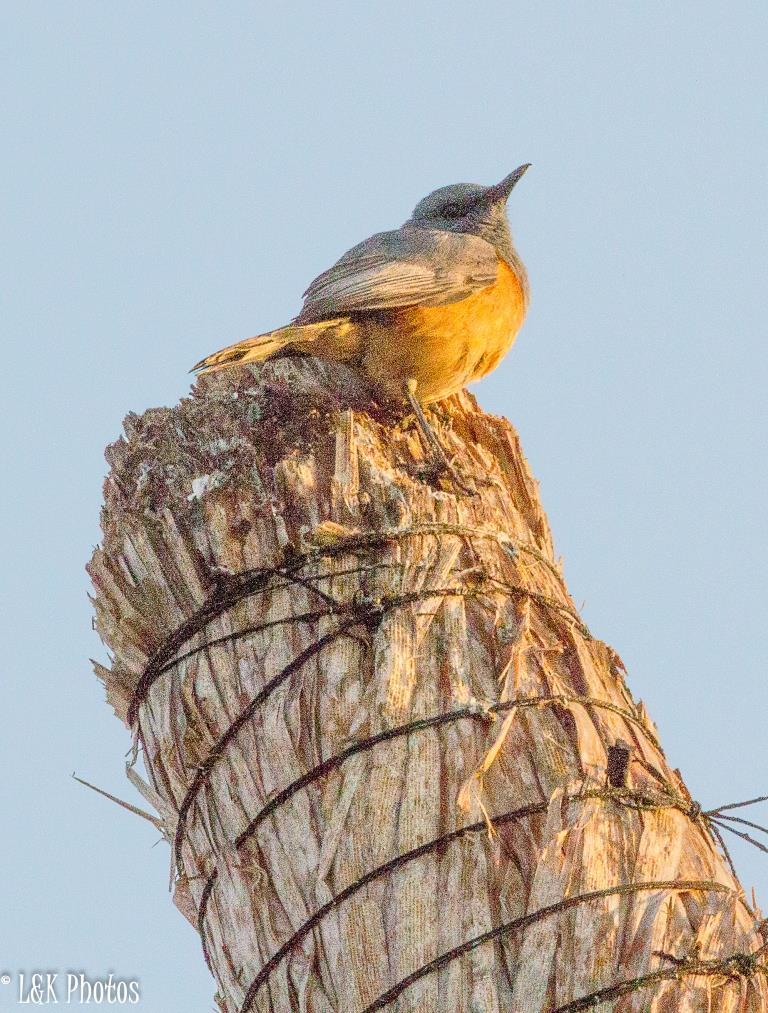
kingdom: Animalia
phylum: Chordata
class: Aves
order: Passeriformes
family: Muscicapidae
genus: Monticola
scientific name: Monticola imerina
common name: Littoral rock-thrush
